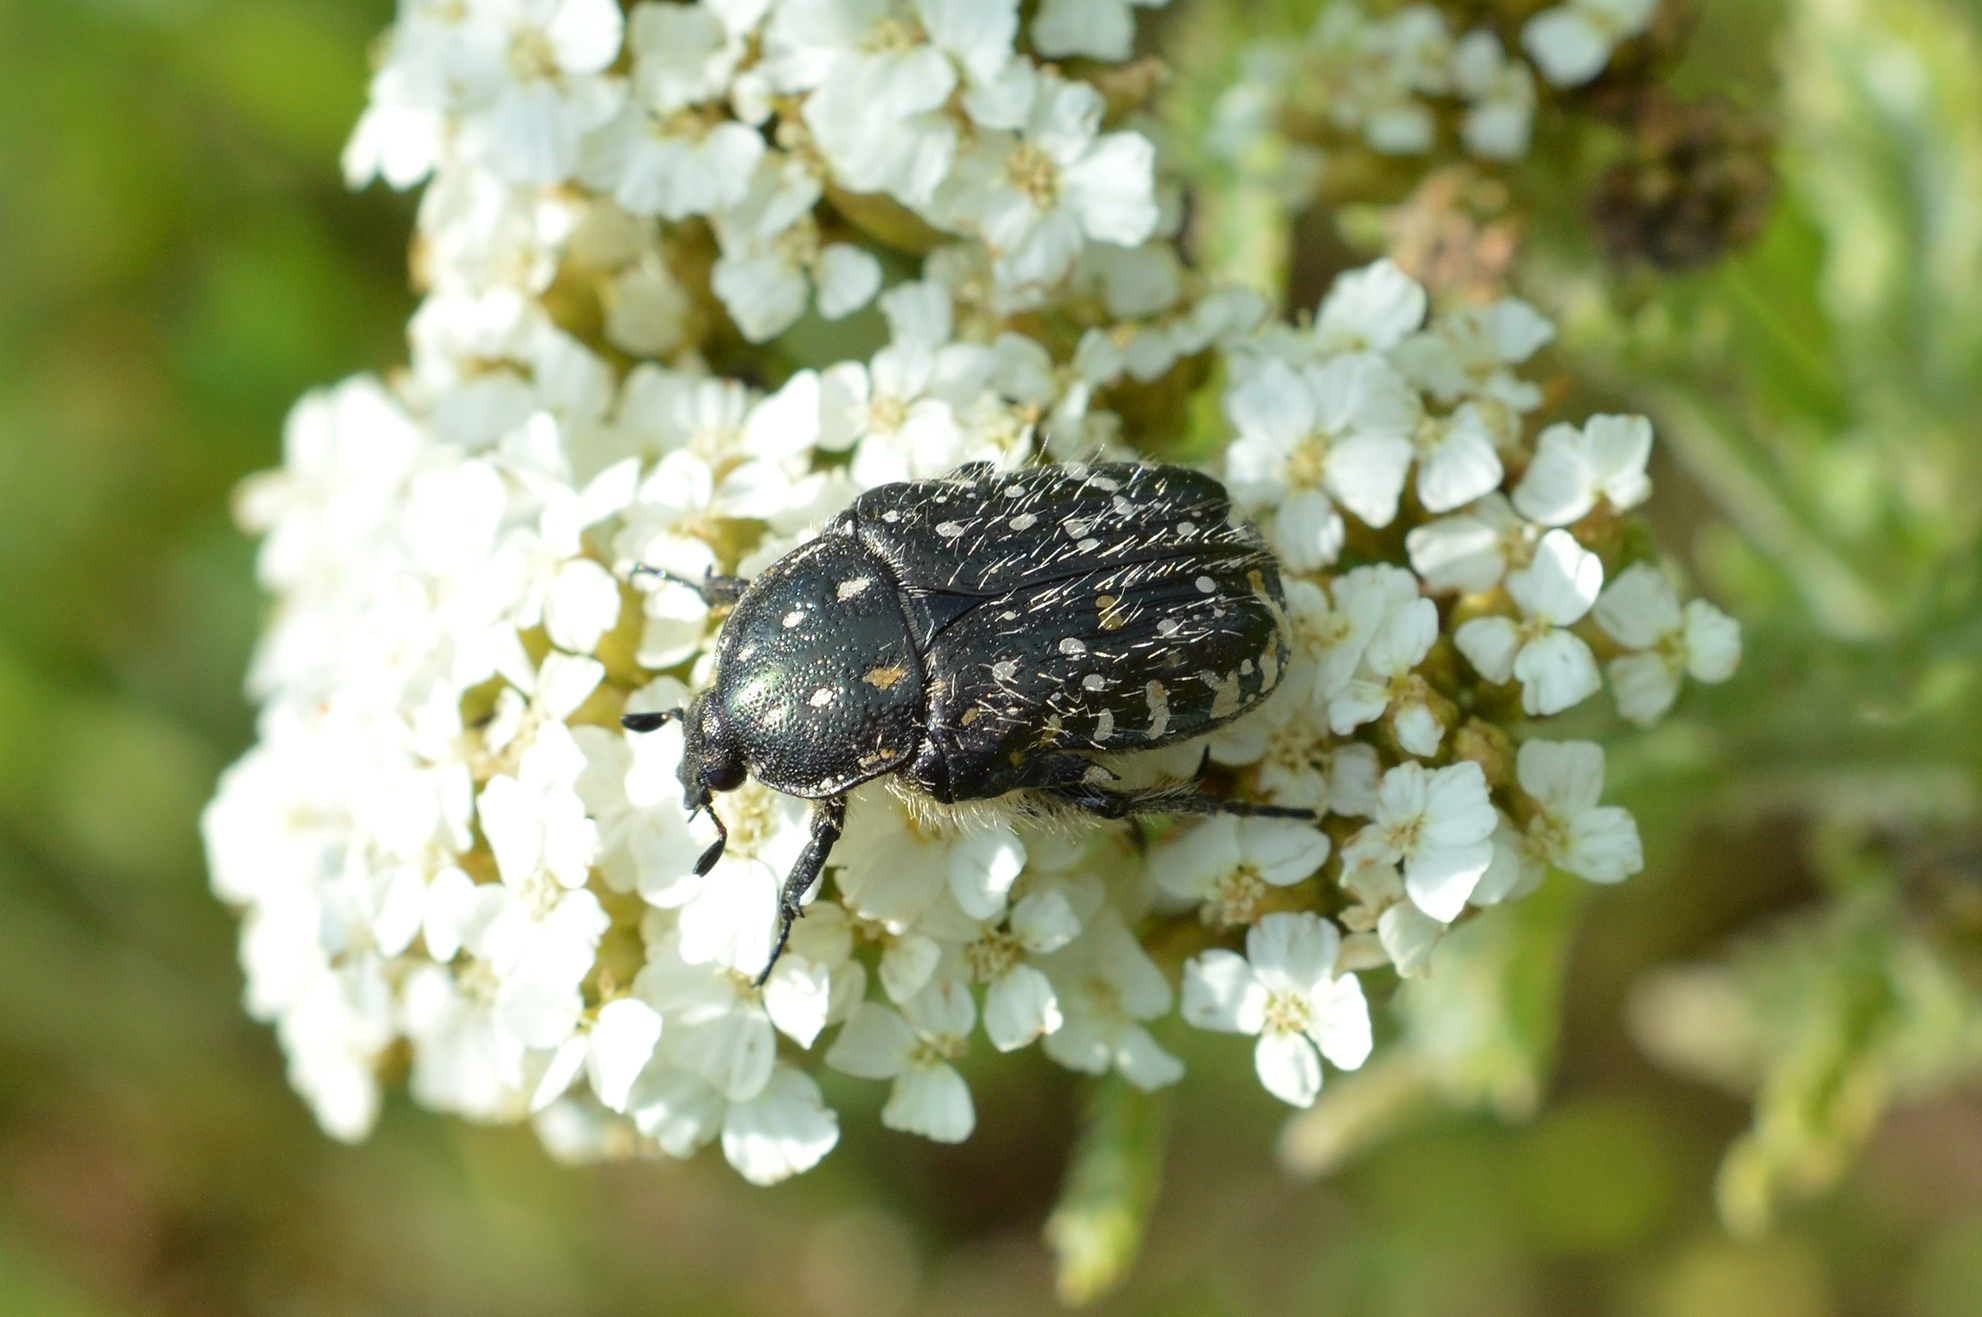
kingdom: Animalia
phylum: Arthropoda
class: Insecta
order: Coleoptera
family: Scarabaeidae
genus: Oxythyrea
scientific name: Oxythyrea funesta
